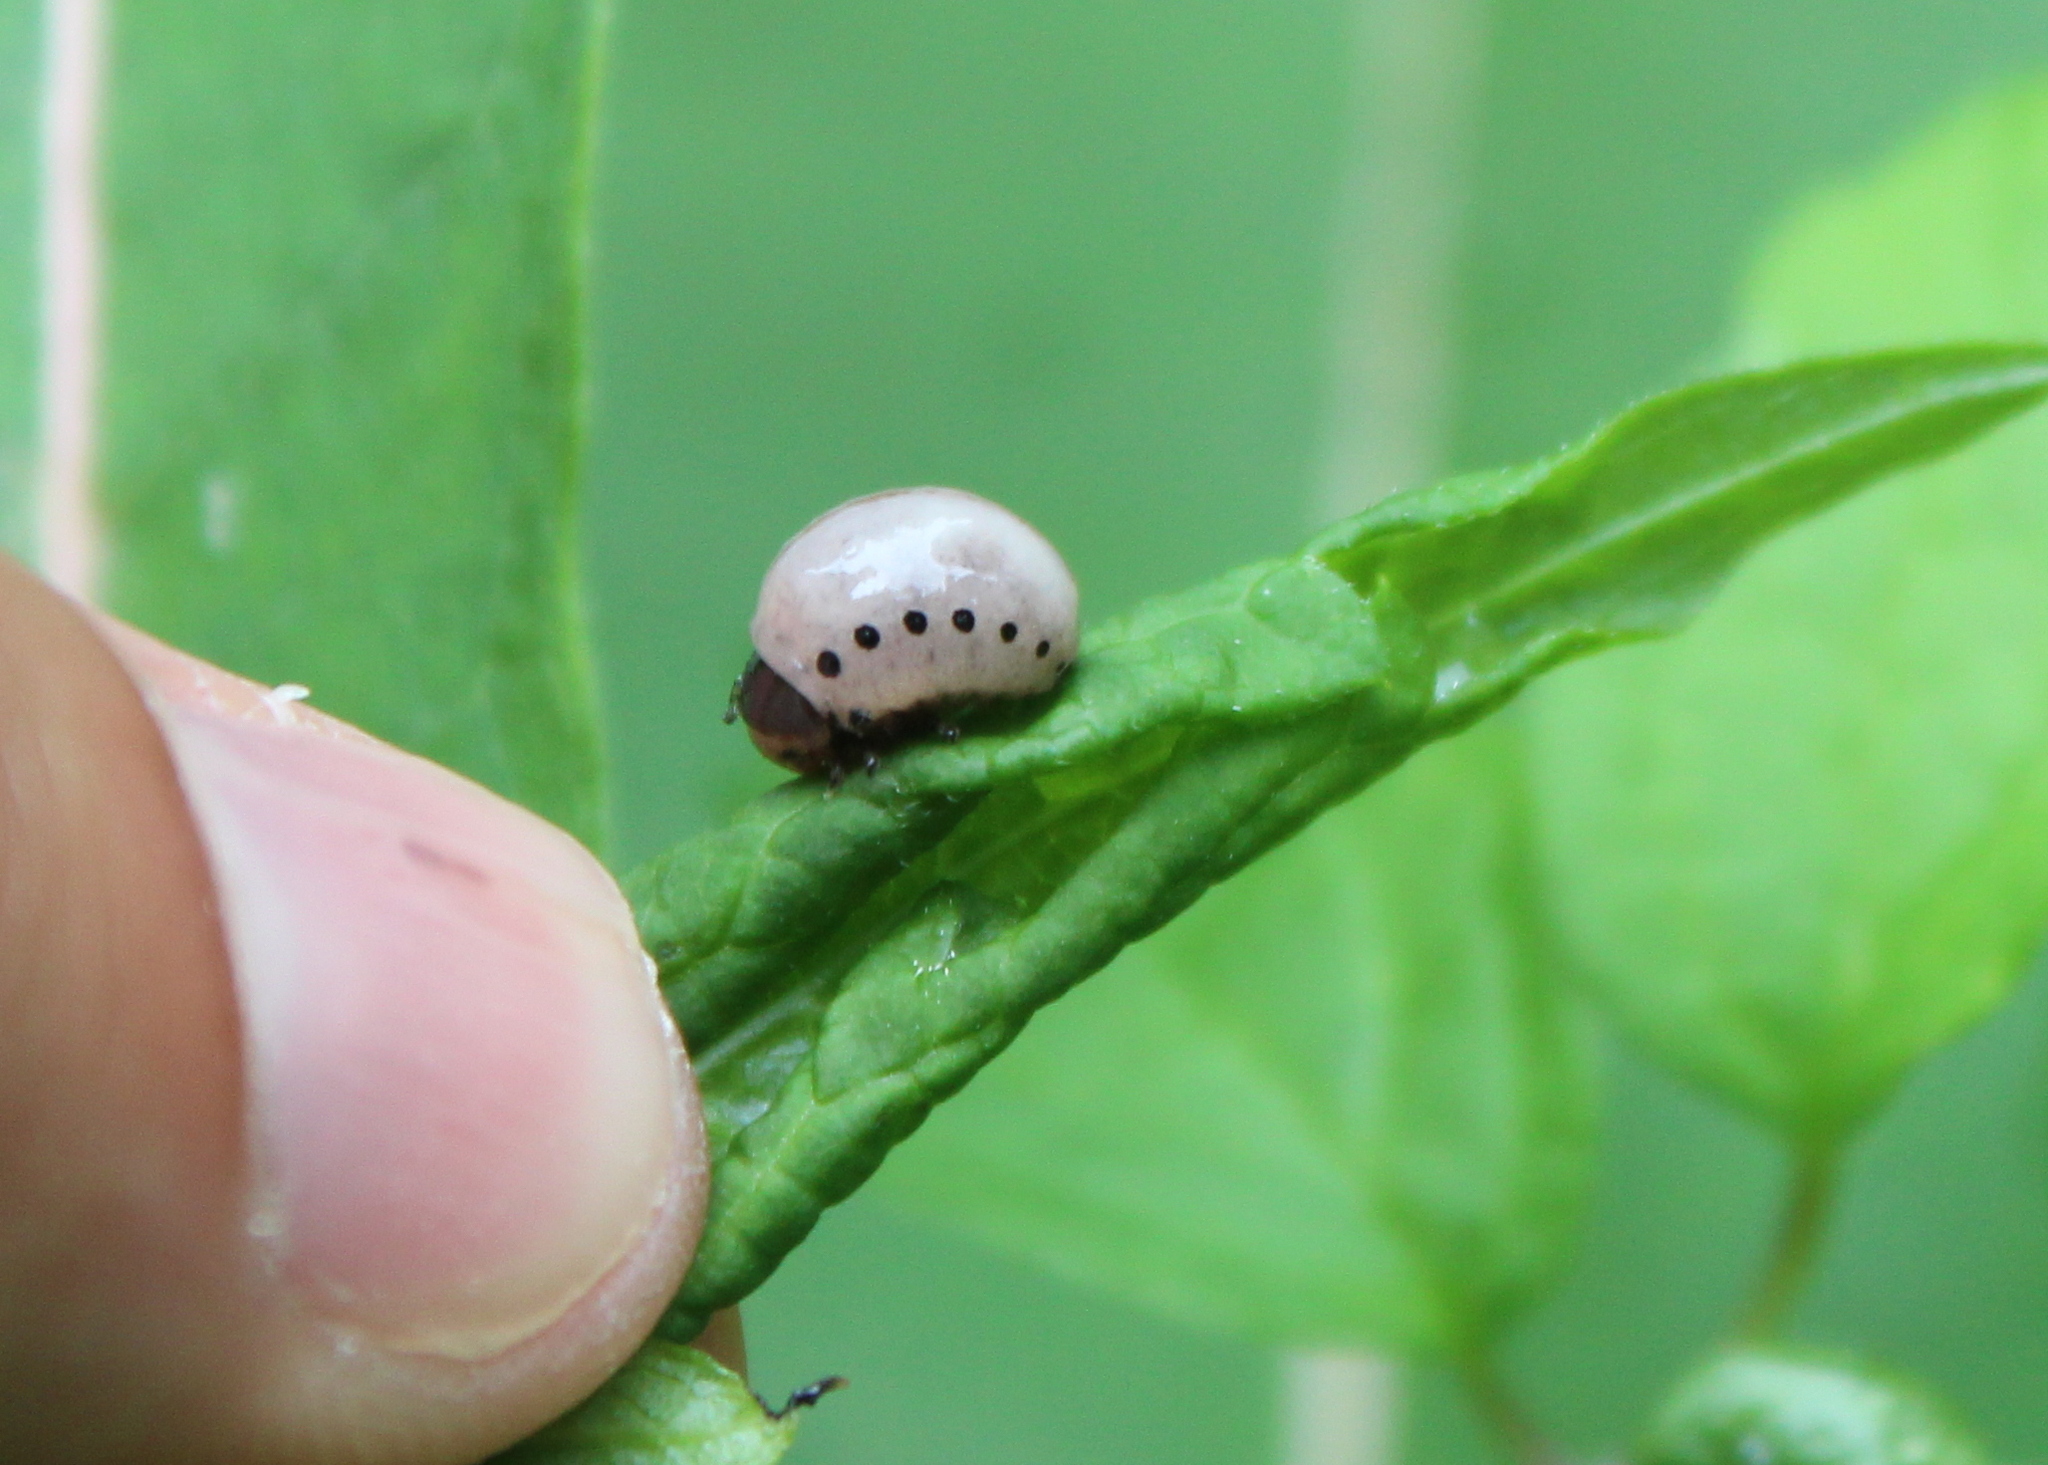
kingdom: Animalia
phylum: Arthropoda
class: Insecta
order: Coleoptera
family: Chrysomelidae
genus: Labidomera
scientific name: Labidomera clivicollis
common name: Swamp milkweed leaf beetle
